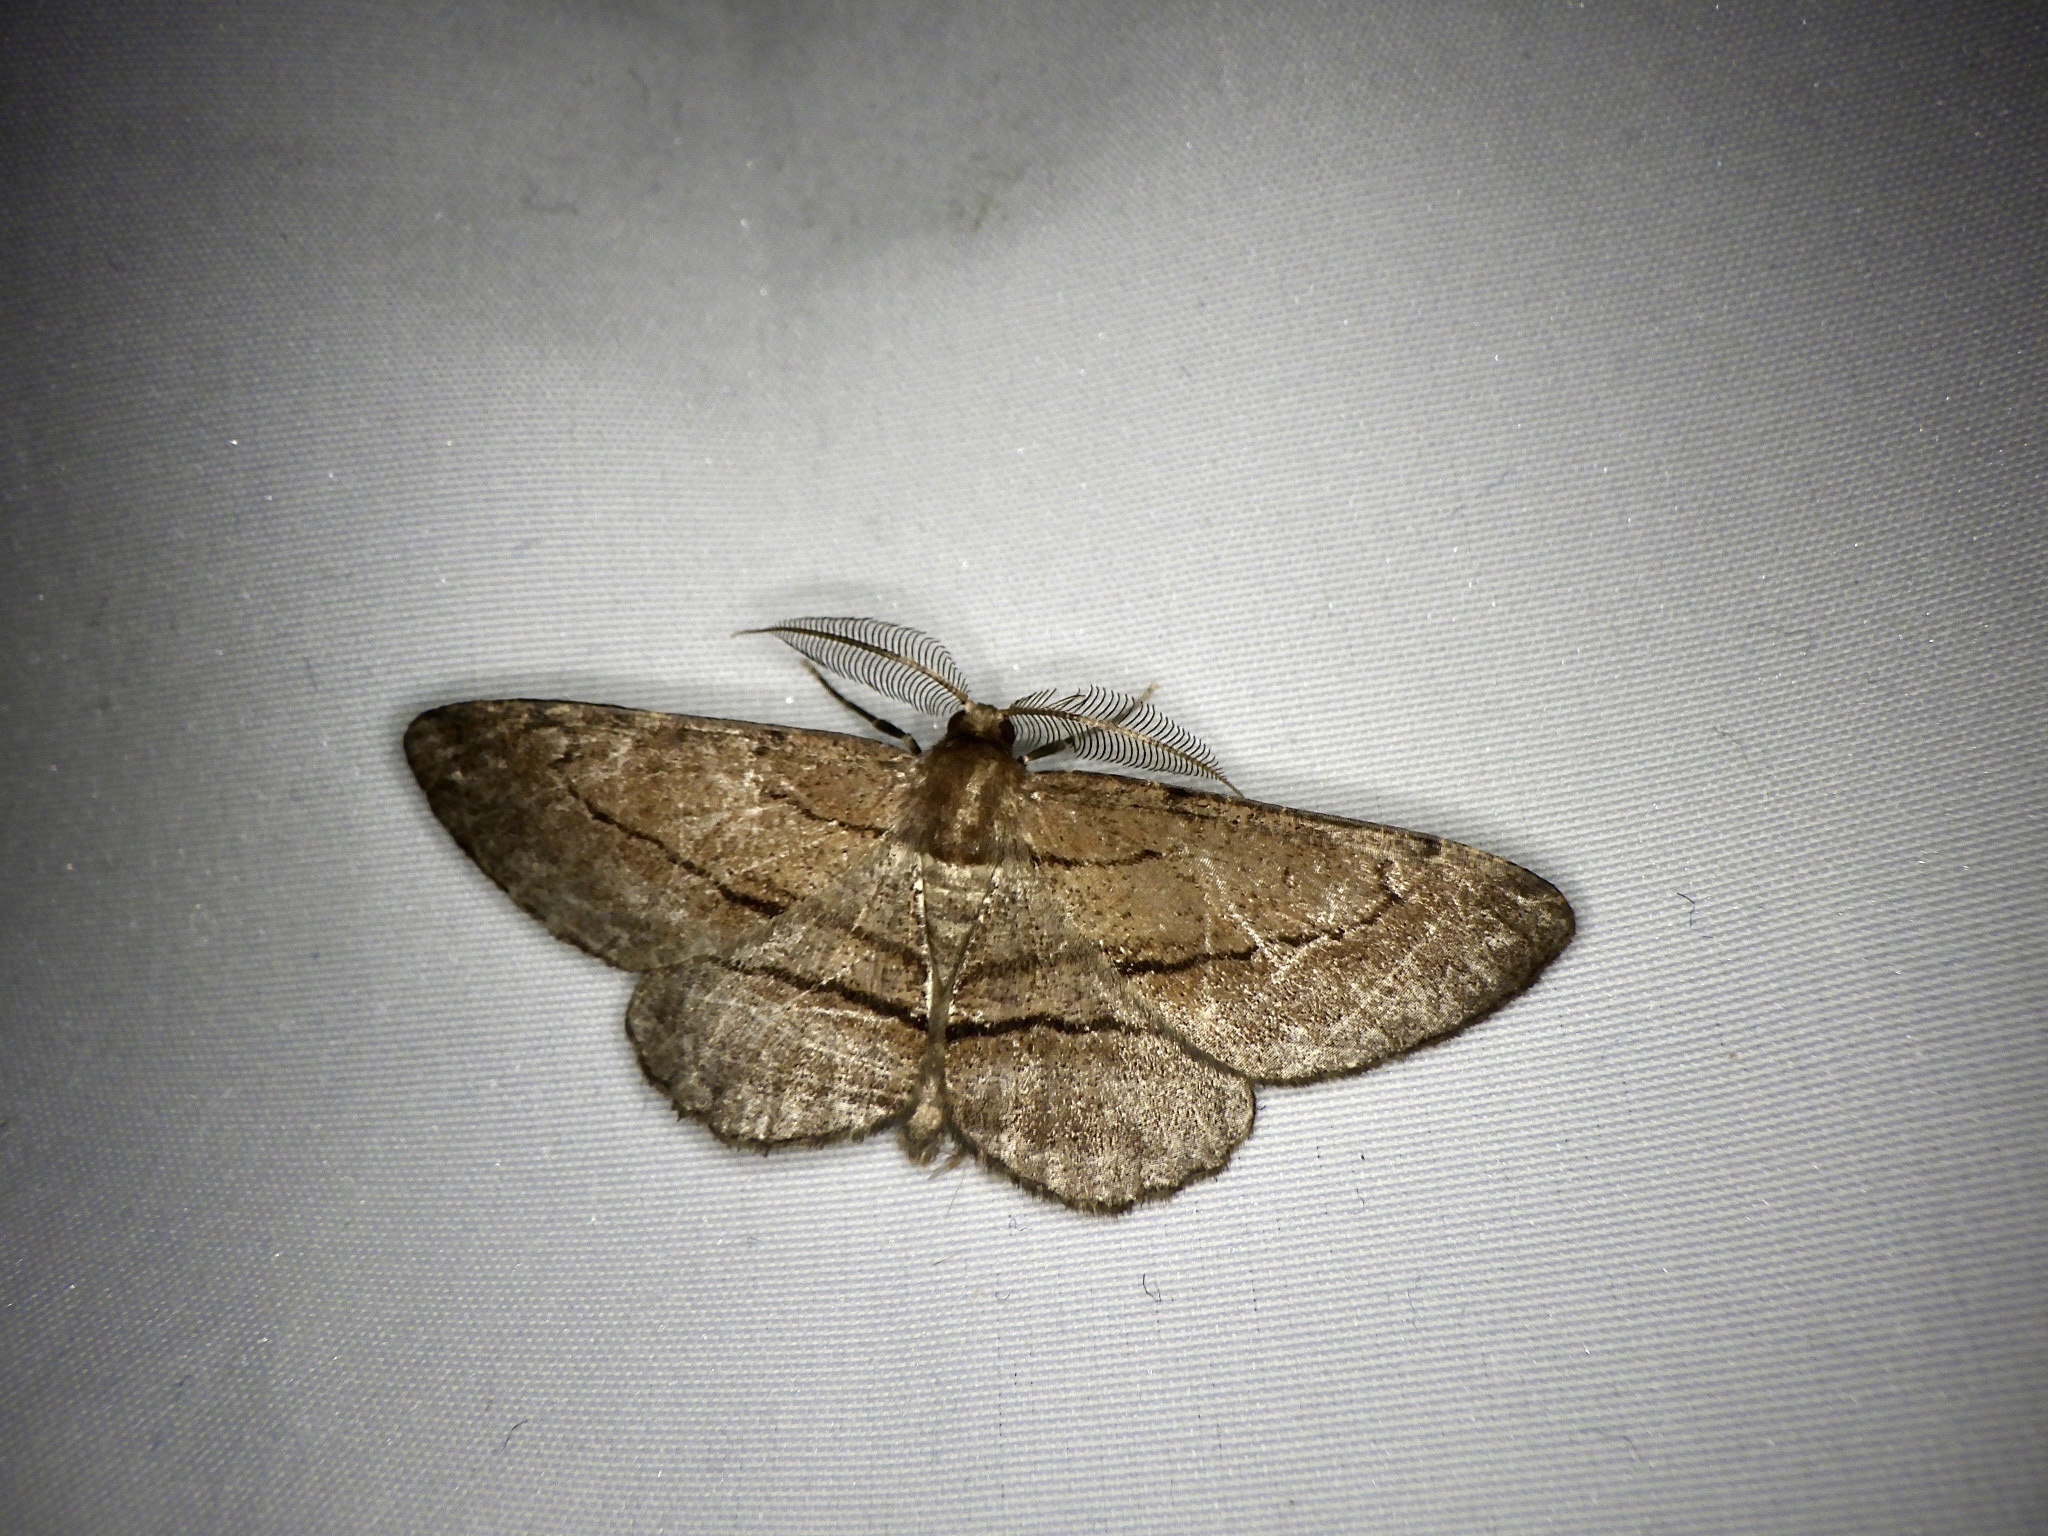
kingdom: Animalia
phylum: Arthropoda
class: Insecta
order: Lepidoptera
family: Geometridae
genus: Apocleora
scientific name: Apocleora rimosa
